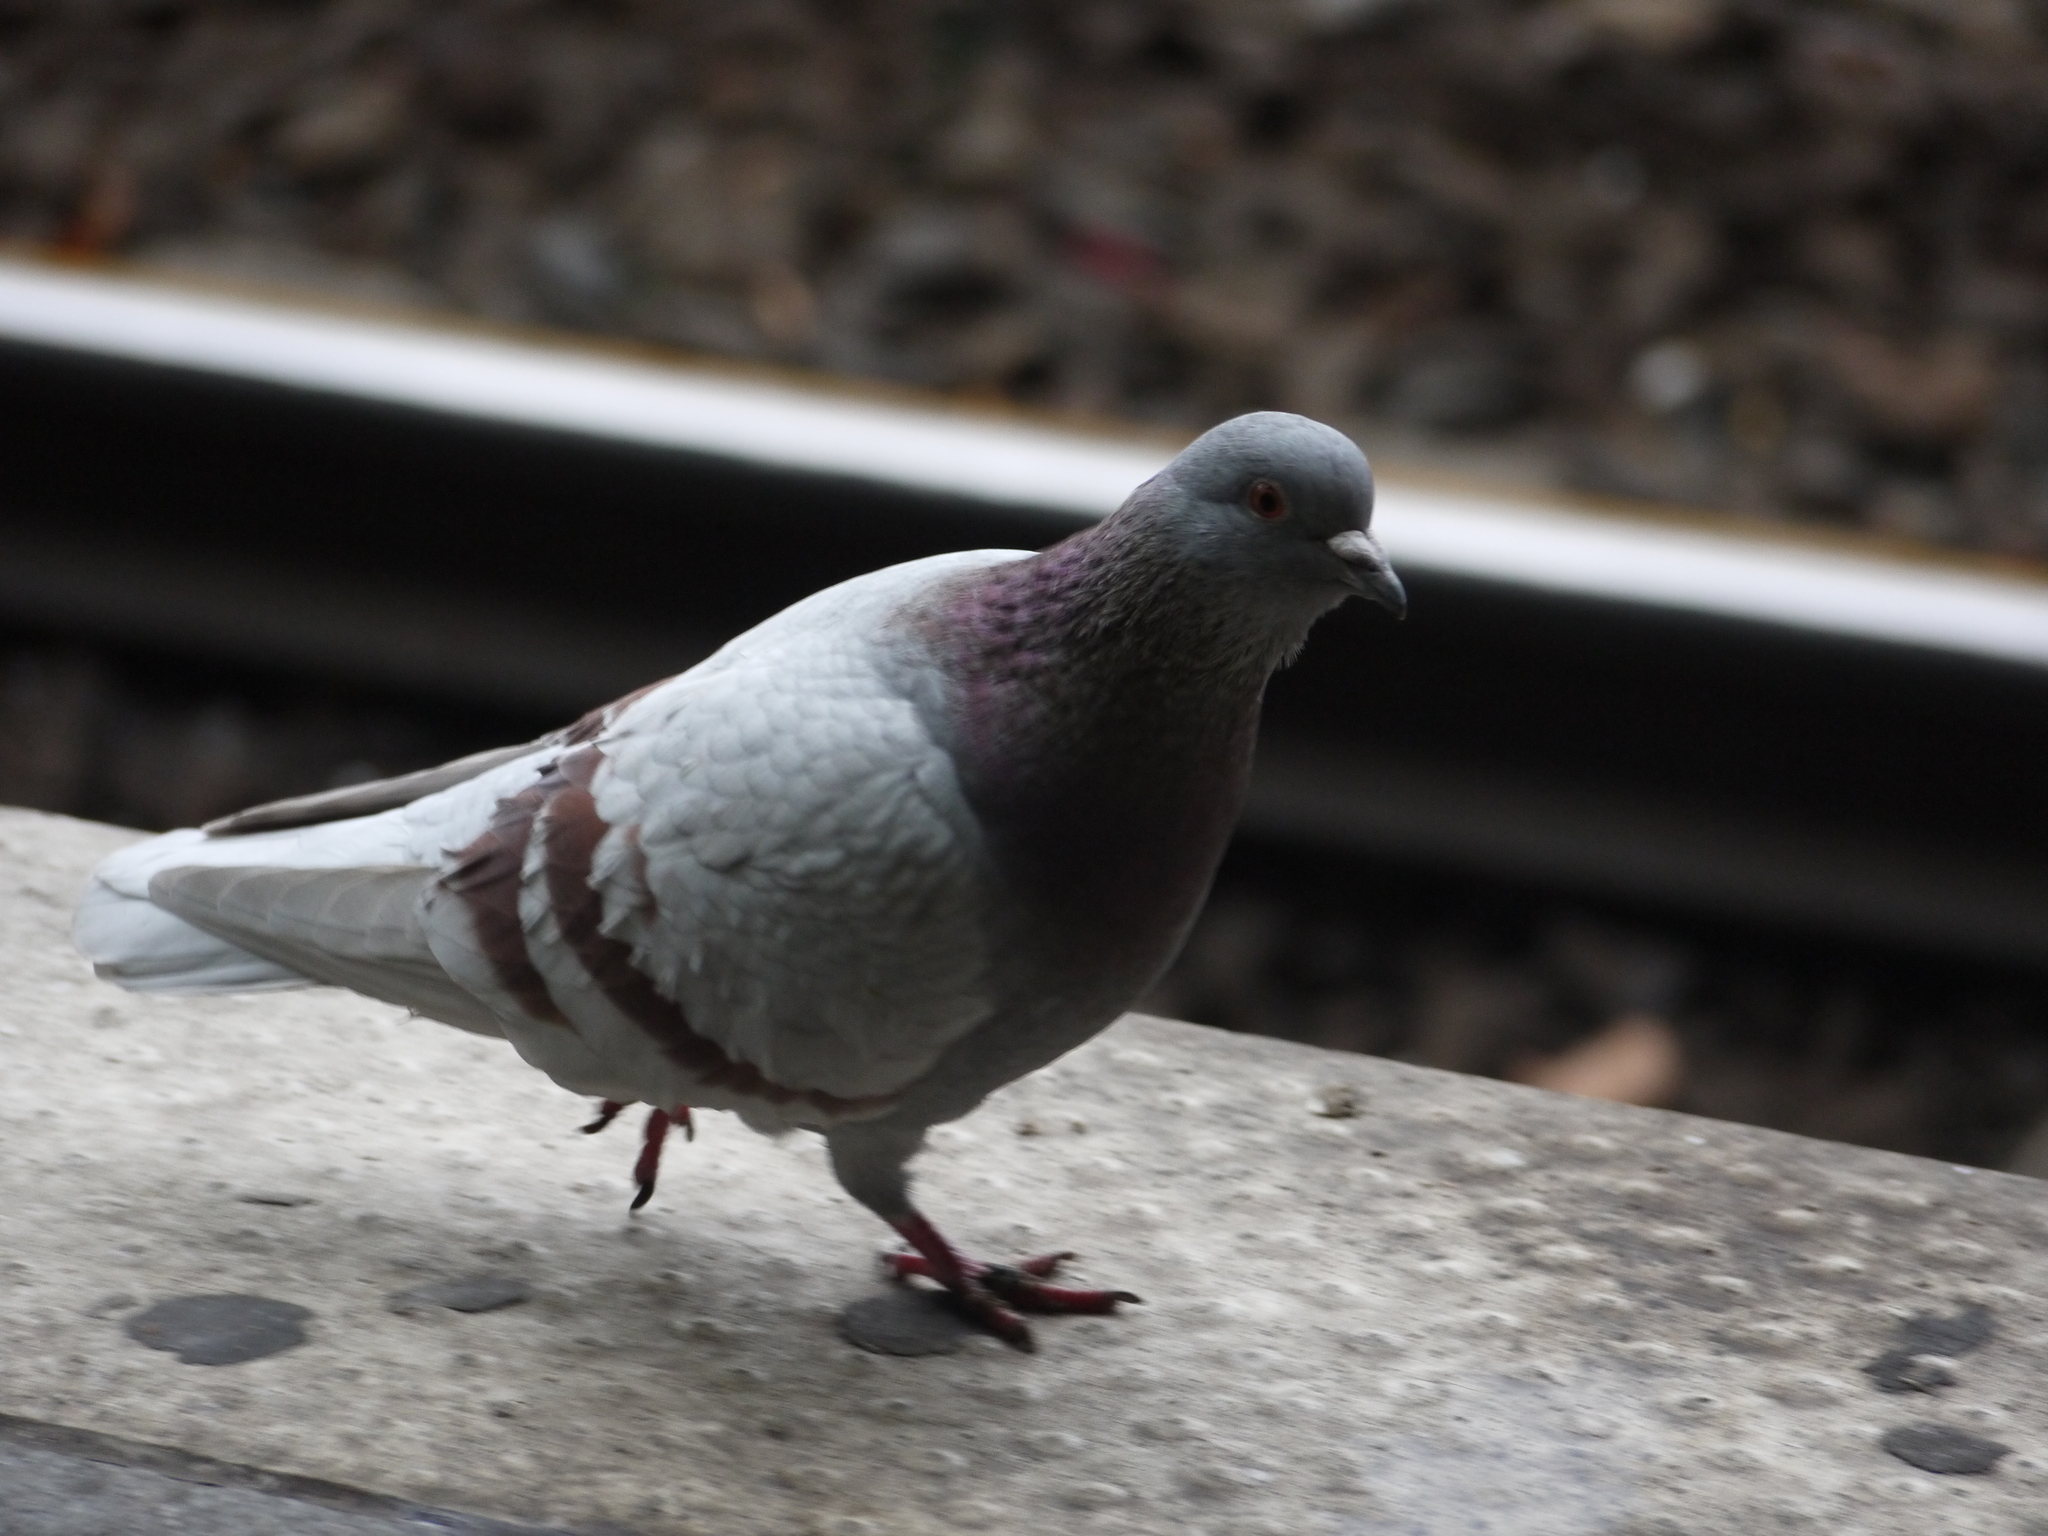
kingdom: Animalia
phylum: Chordata
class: Aves
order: Columbiformes
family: Columbidae
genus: Columba
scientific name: Columba livia
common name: Rock pigeon
